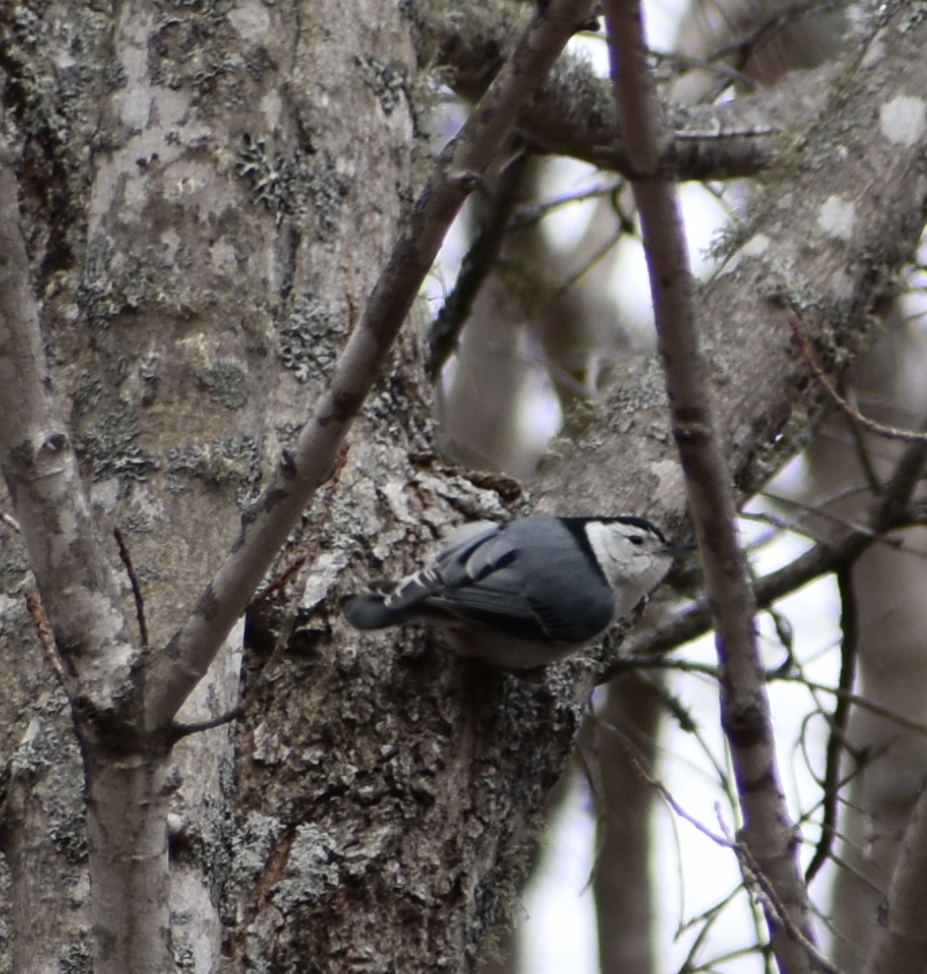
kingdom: Animalia
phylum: Chordata
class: Aves
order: Passeriformes
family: Sittidae
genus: Sitta
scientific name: Sitta carolinensis
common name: White-breasted nuthatch
